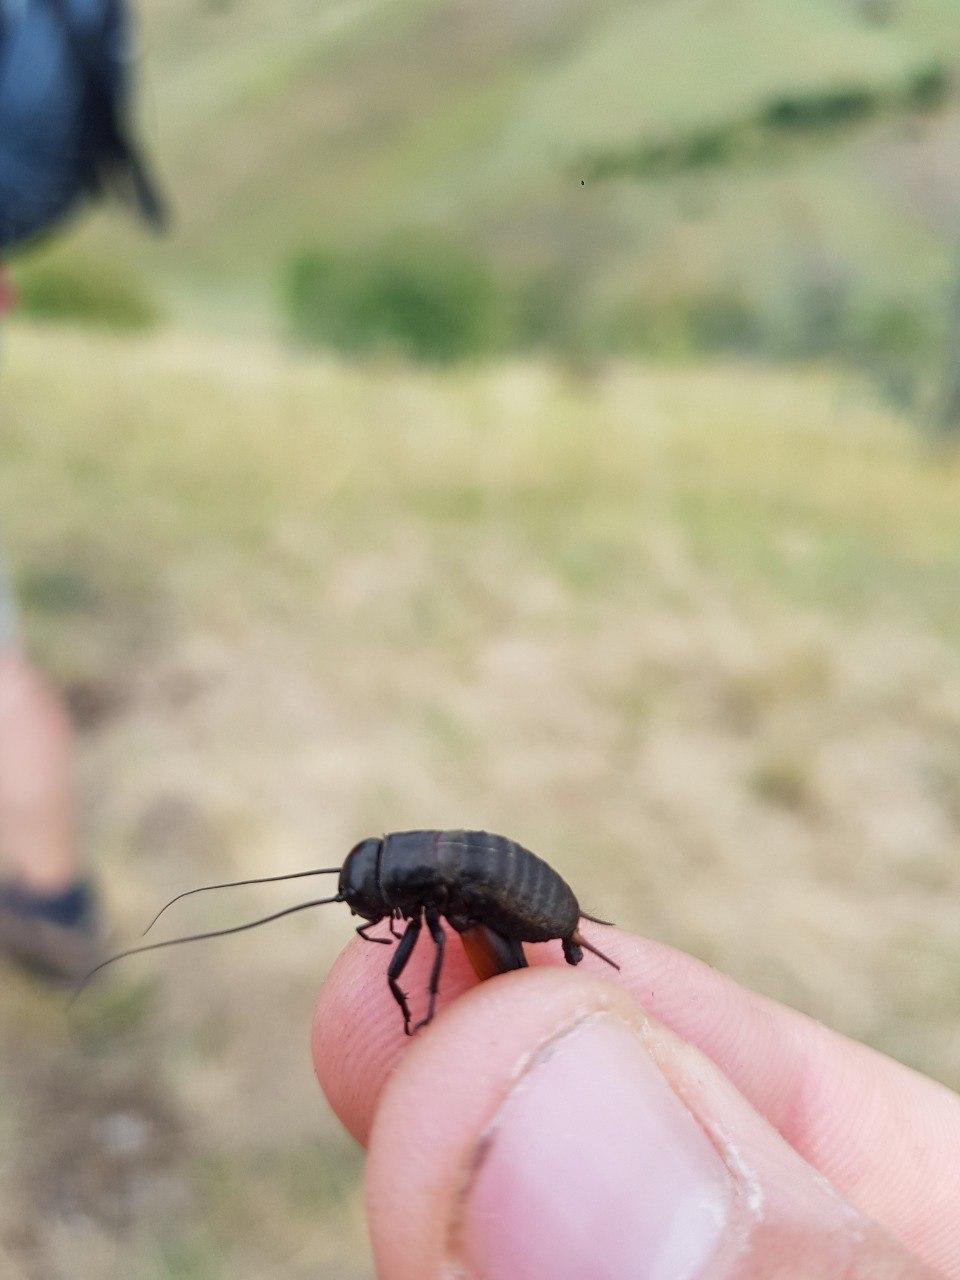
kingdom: Animalia
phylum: Arthropoda
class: Insecta
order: Orthoptera
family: Gryllidae
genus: Gryllus
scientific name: Gryllus campestris
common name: Field cricket
